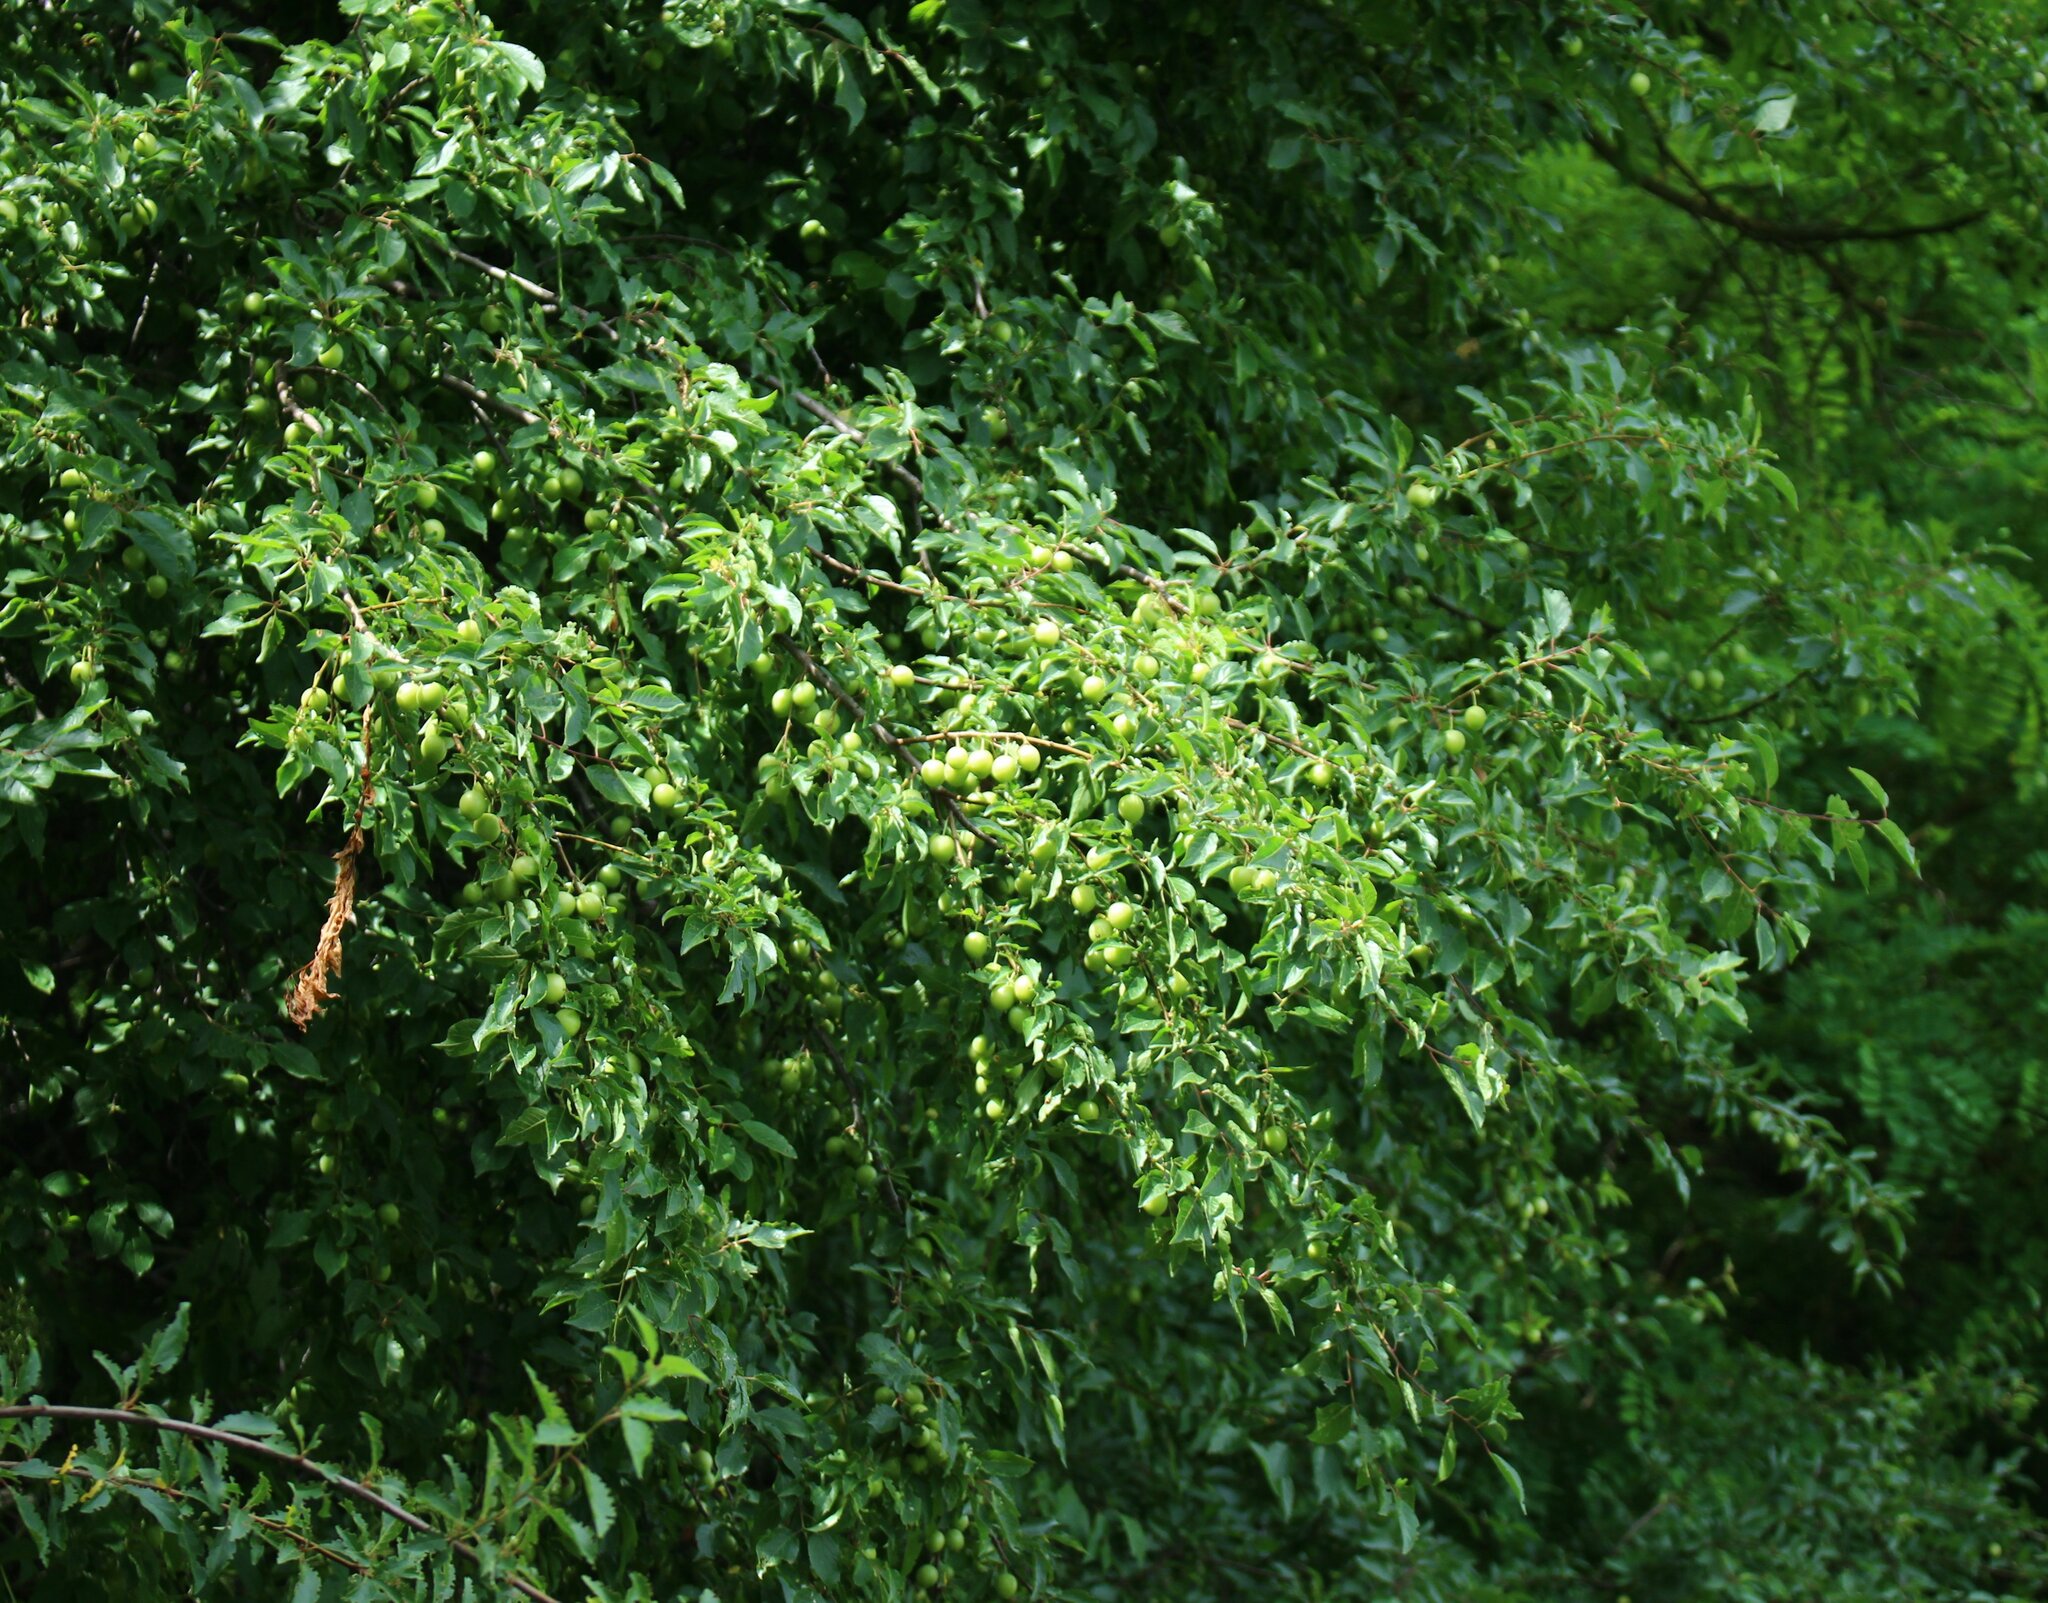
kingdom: Plantae
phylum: Tracheophyta
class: Magnoliopsida
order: Rosales
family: Rosaceae
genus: Prunus
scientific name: Prunus cerasifera
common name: Cherry plum
